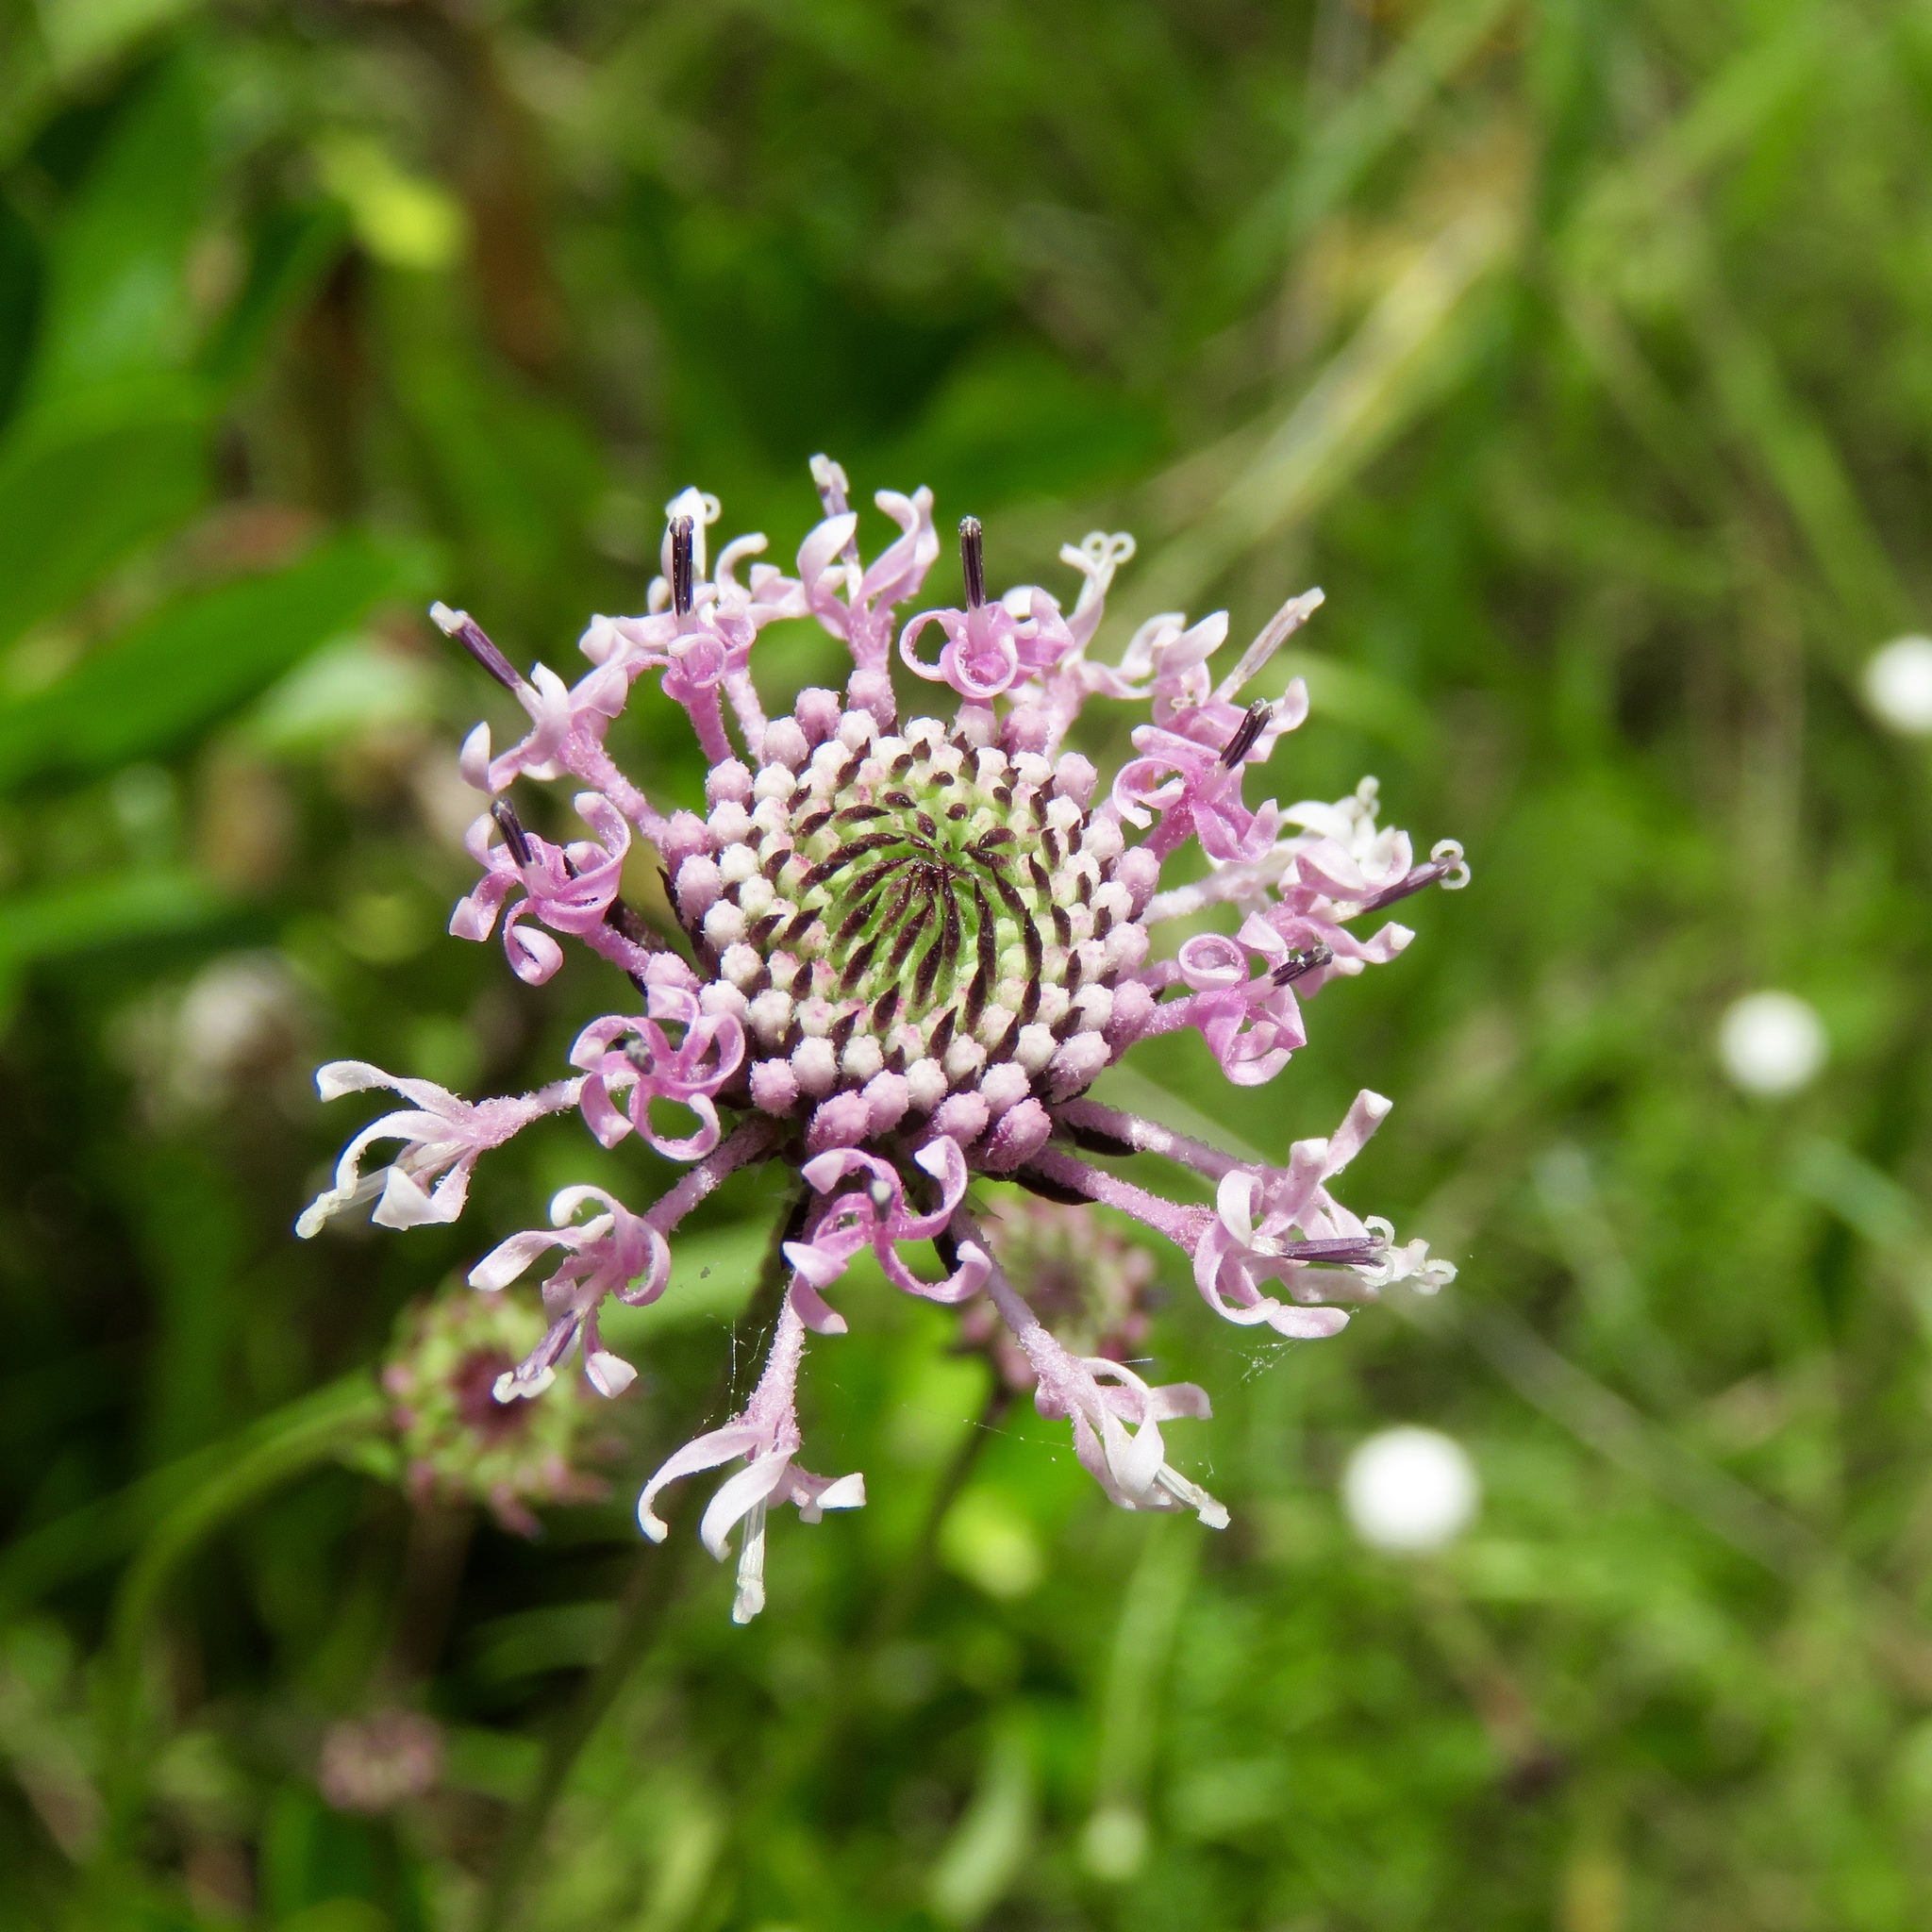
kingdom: Plantae
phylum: Tracheophyta
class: Magnoliopsida
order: Asterales
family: Asteraceae
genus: Marshallia
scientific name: Marshallia graminifolia
